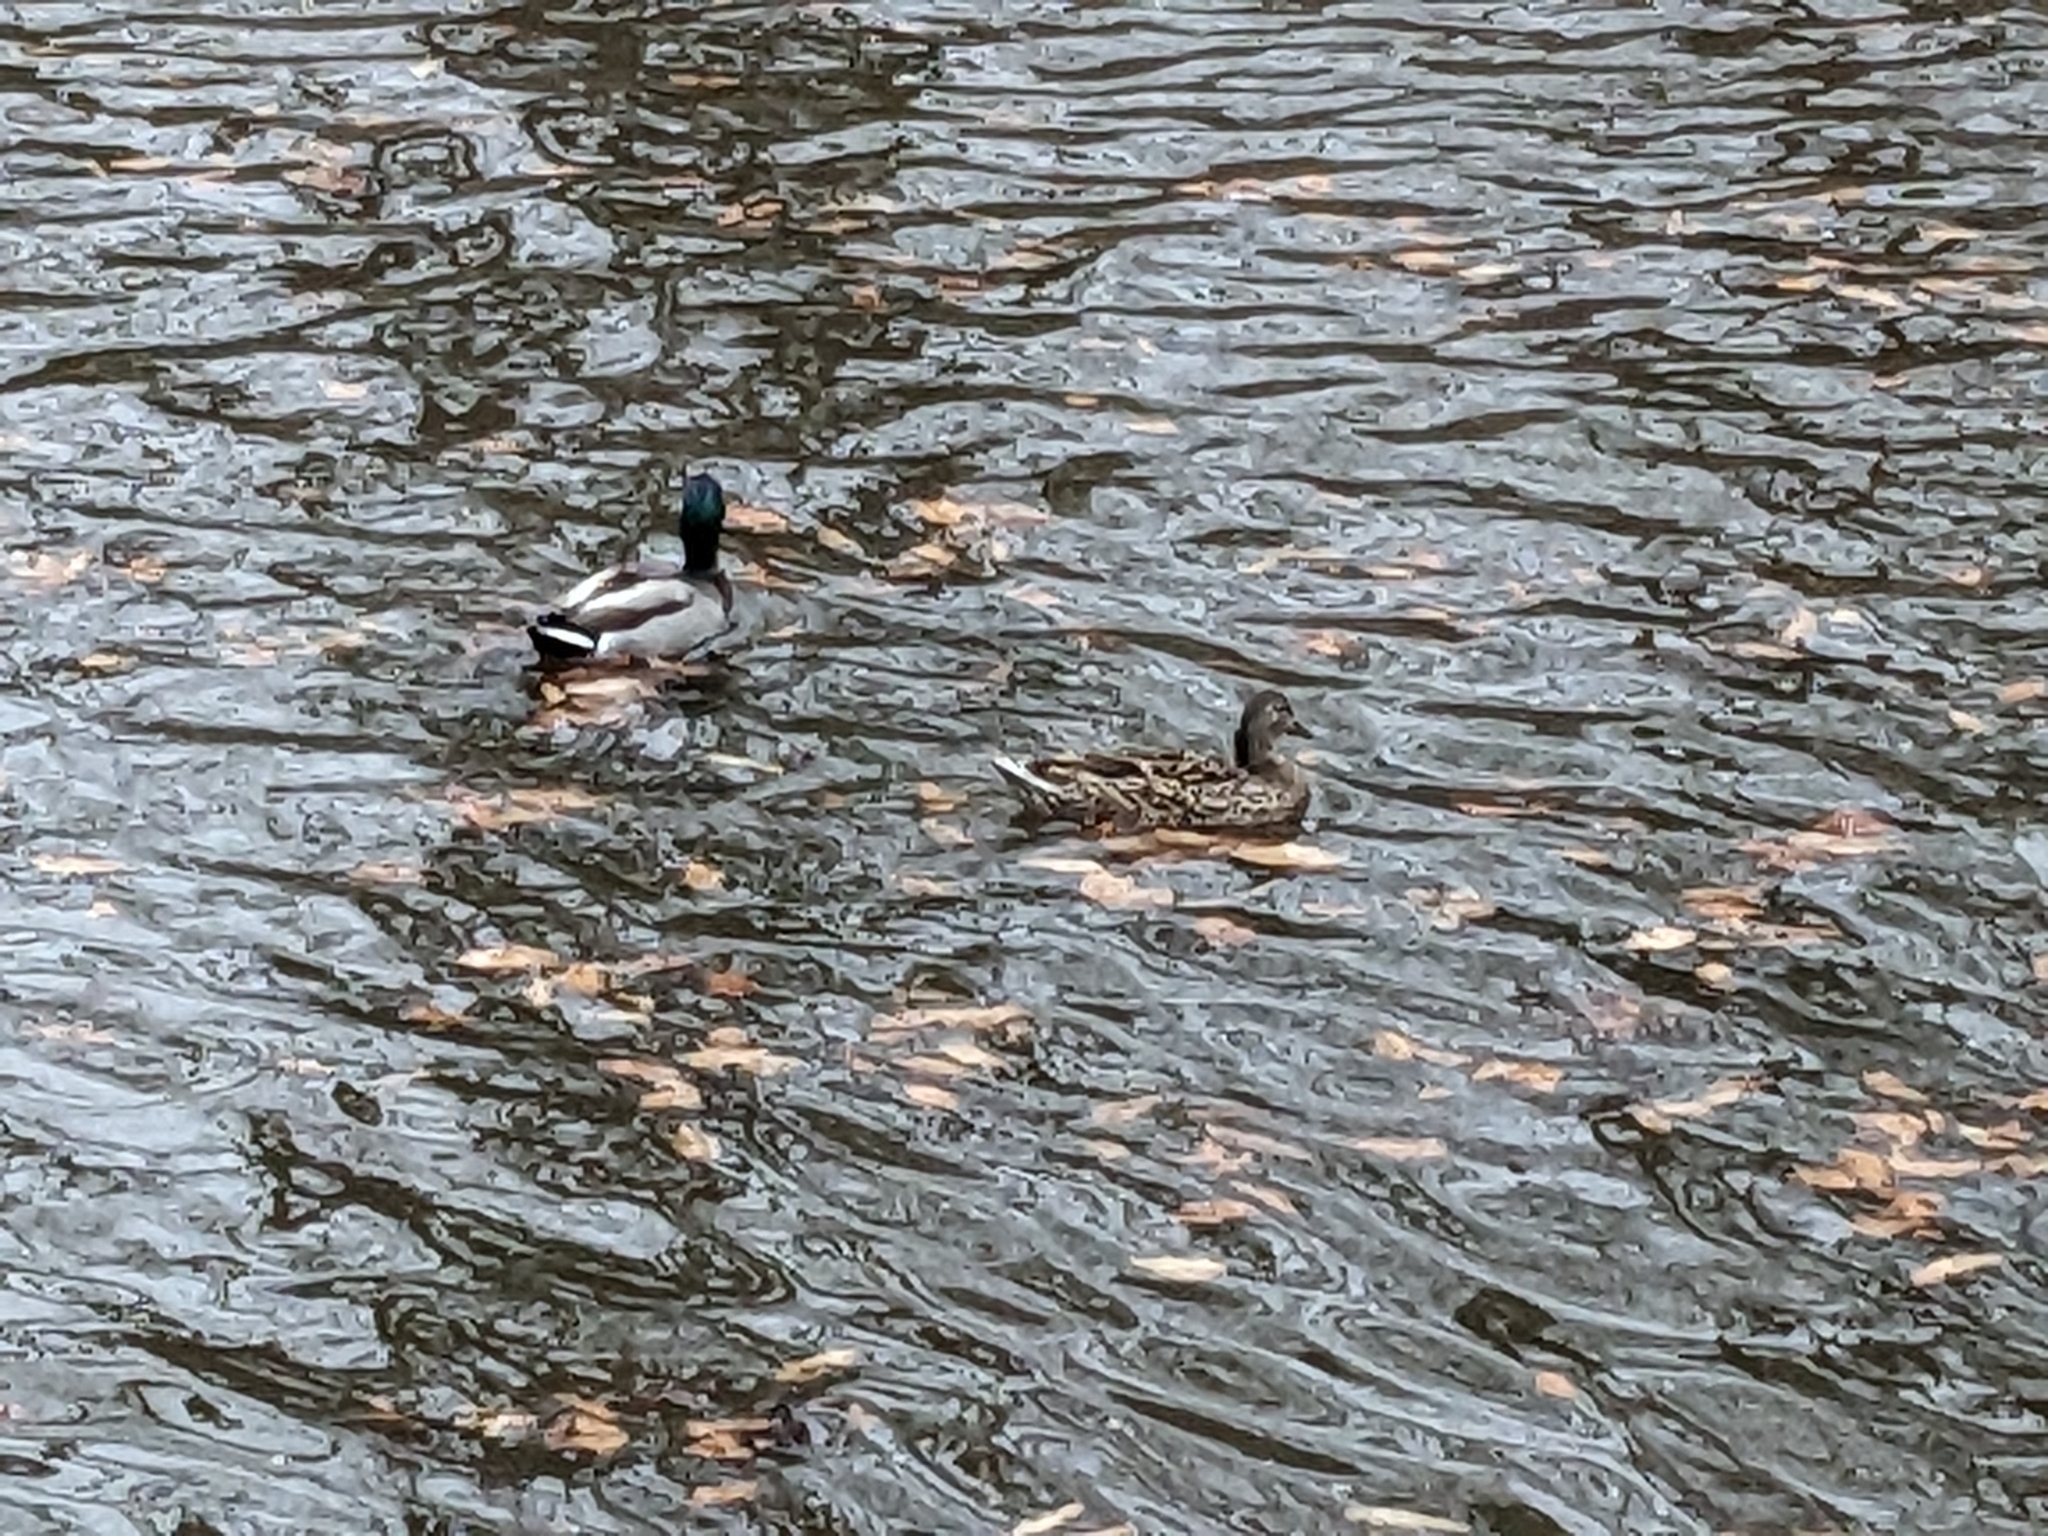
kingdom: Animalia
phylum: Chordata
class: Aves
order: Anseriformes
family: Anatidae
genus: Anas
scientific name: Anas platyrhynchos
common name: Mallard
